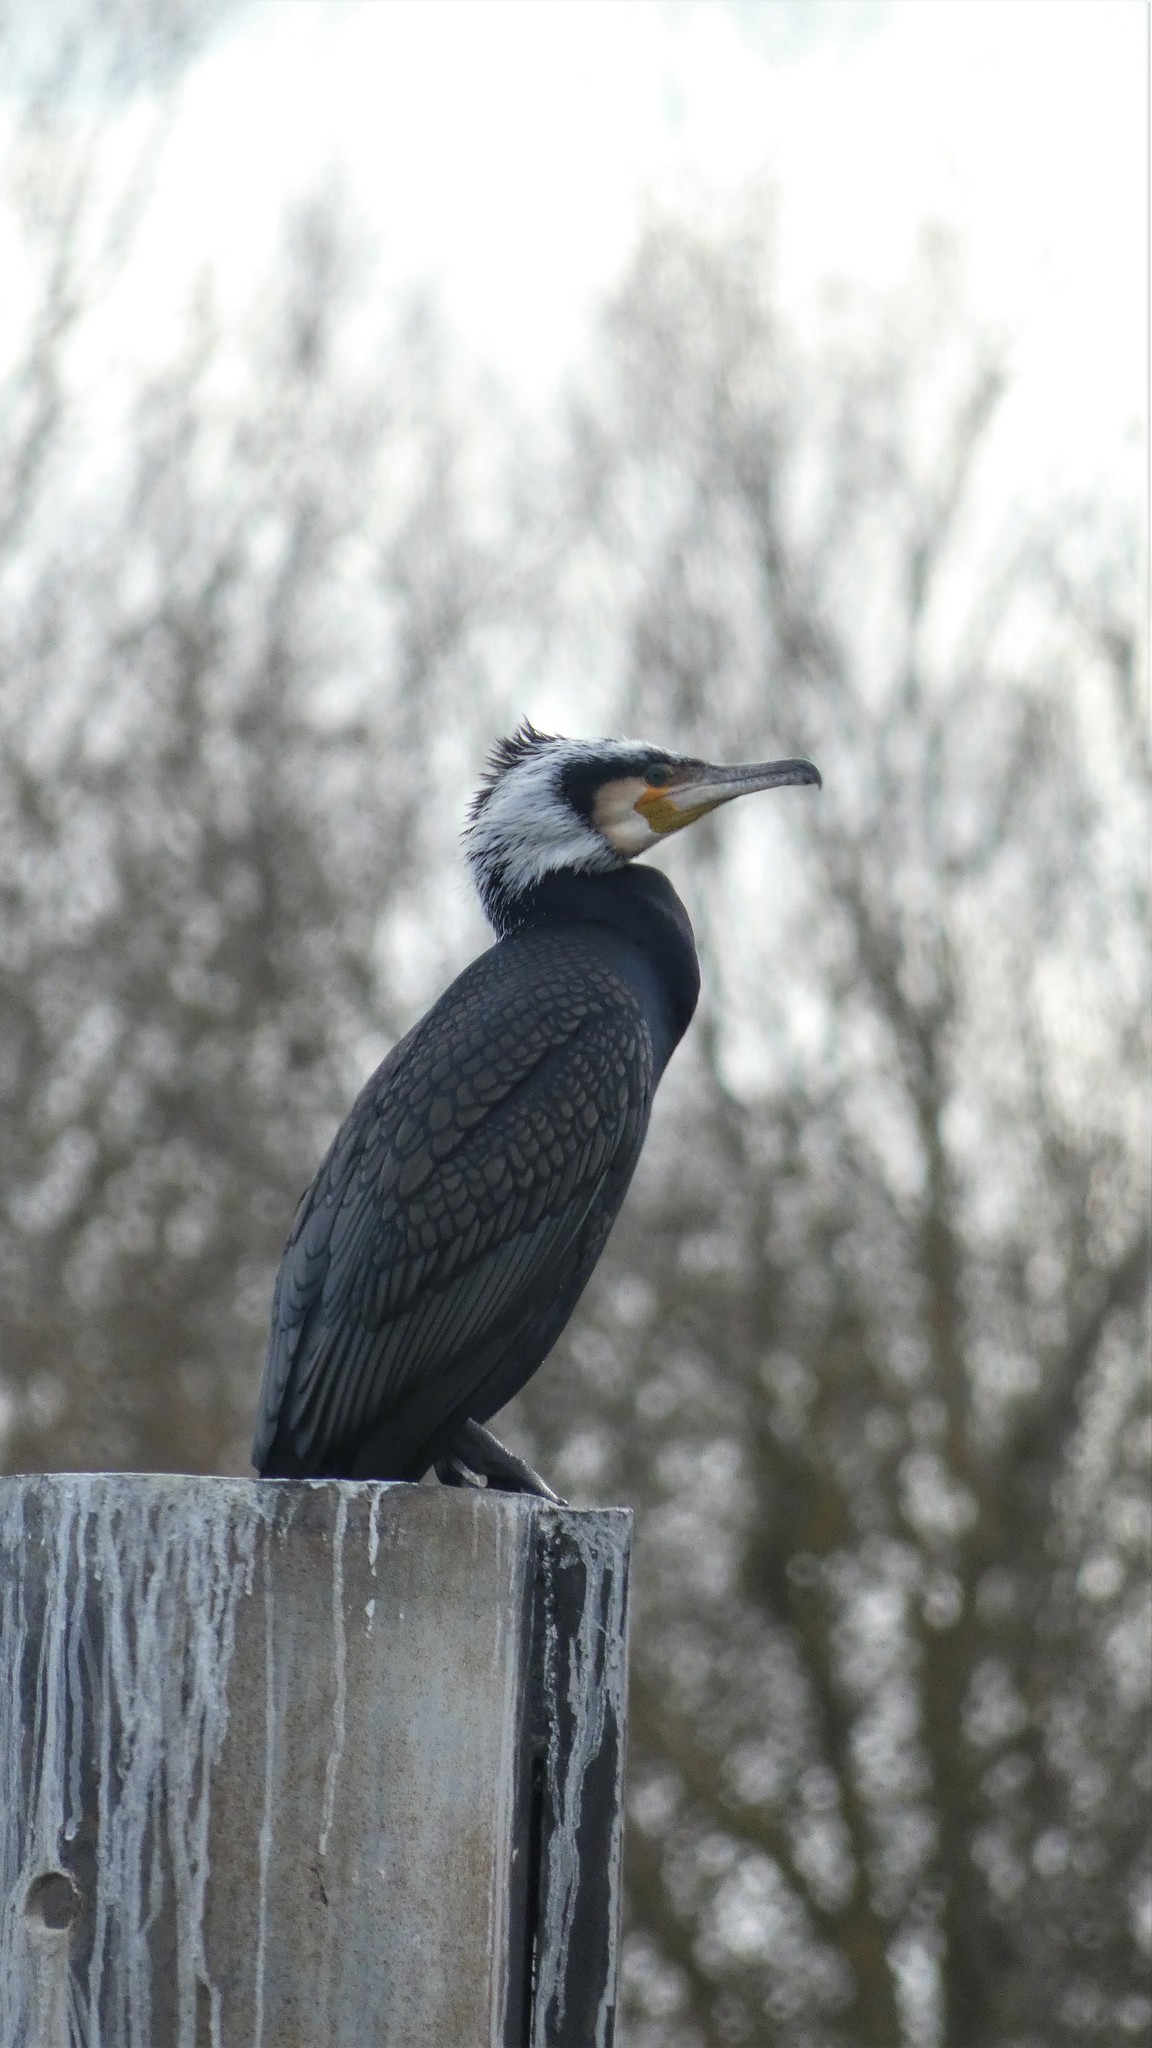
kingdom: Animalia
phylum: Chordata
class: Aves
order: Suliformes
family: Phalacrocoracidae
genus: Phalacrocorax
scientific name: Phalacrocorax carbo
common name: Great cormorant
